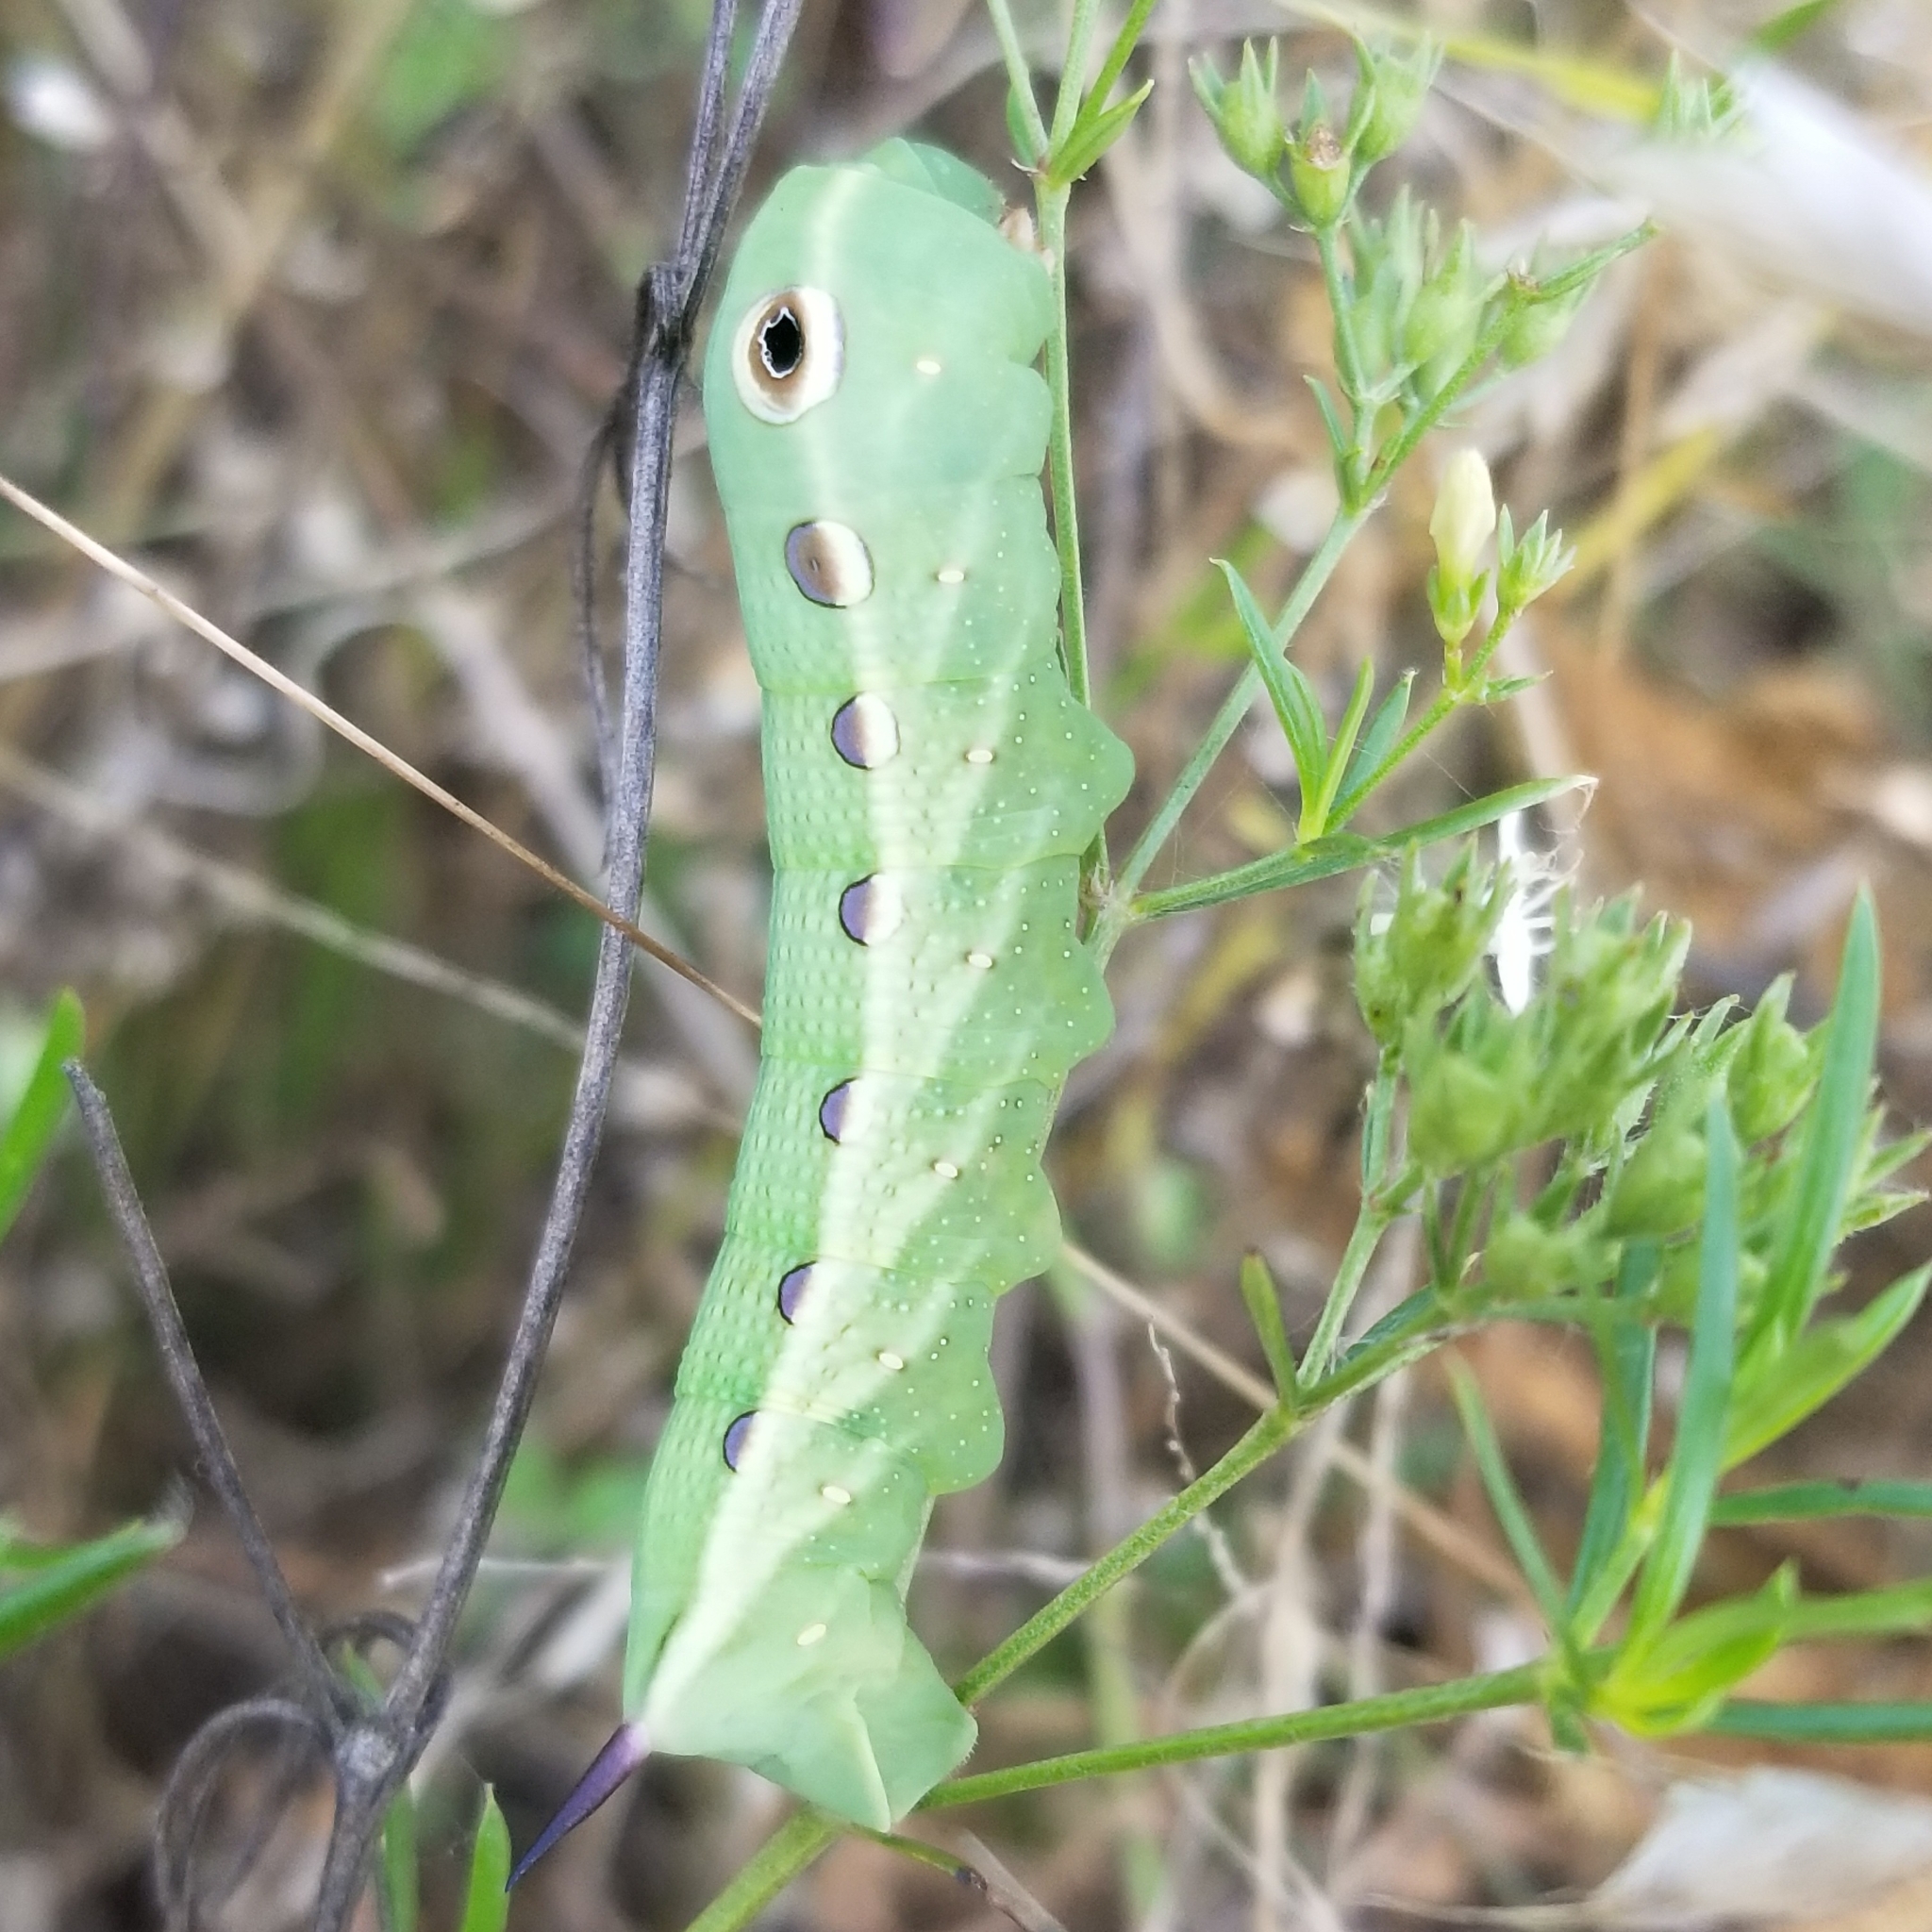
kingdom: Animalia
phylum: Arthropoda
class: Insecta
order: Lepidoptera
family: Sphingidae
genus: Xylophanes
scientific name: Xylophanes tersa
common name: Tersa sphinx
